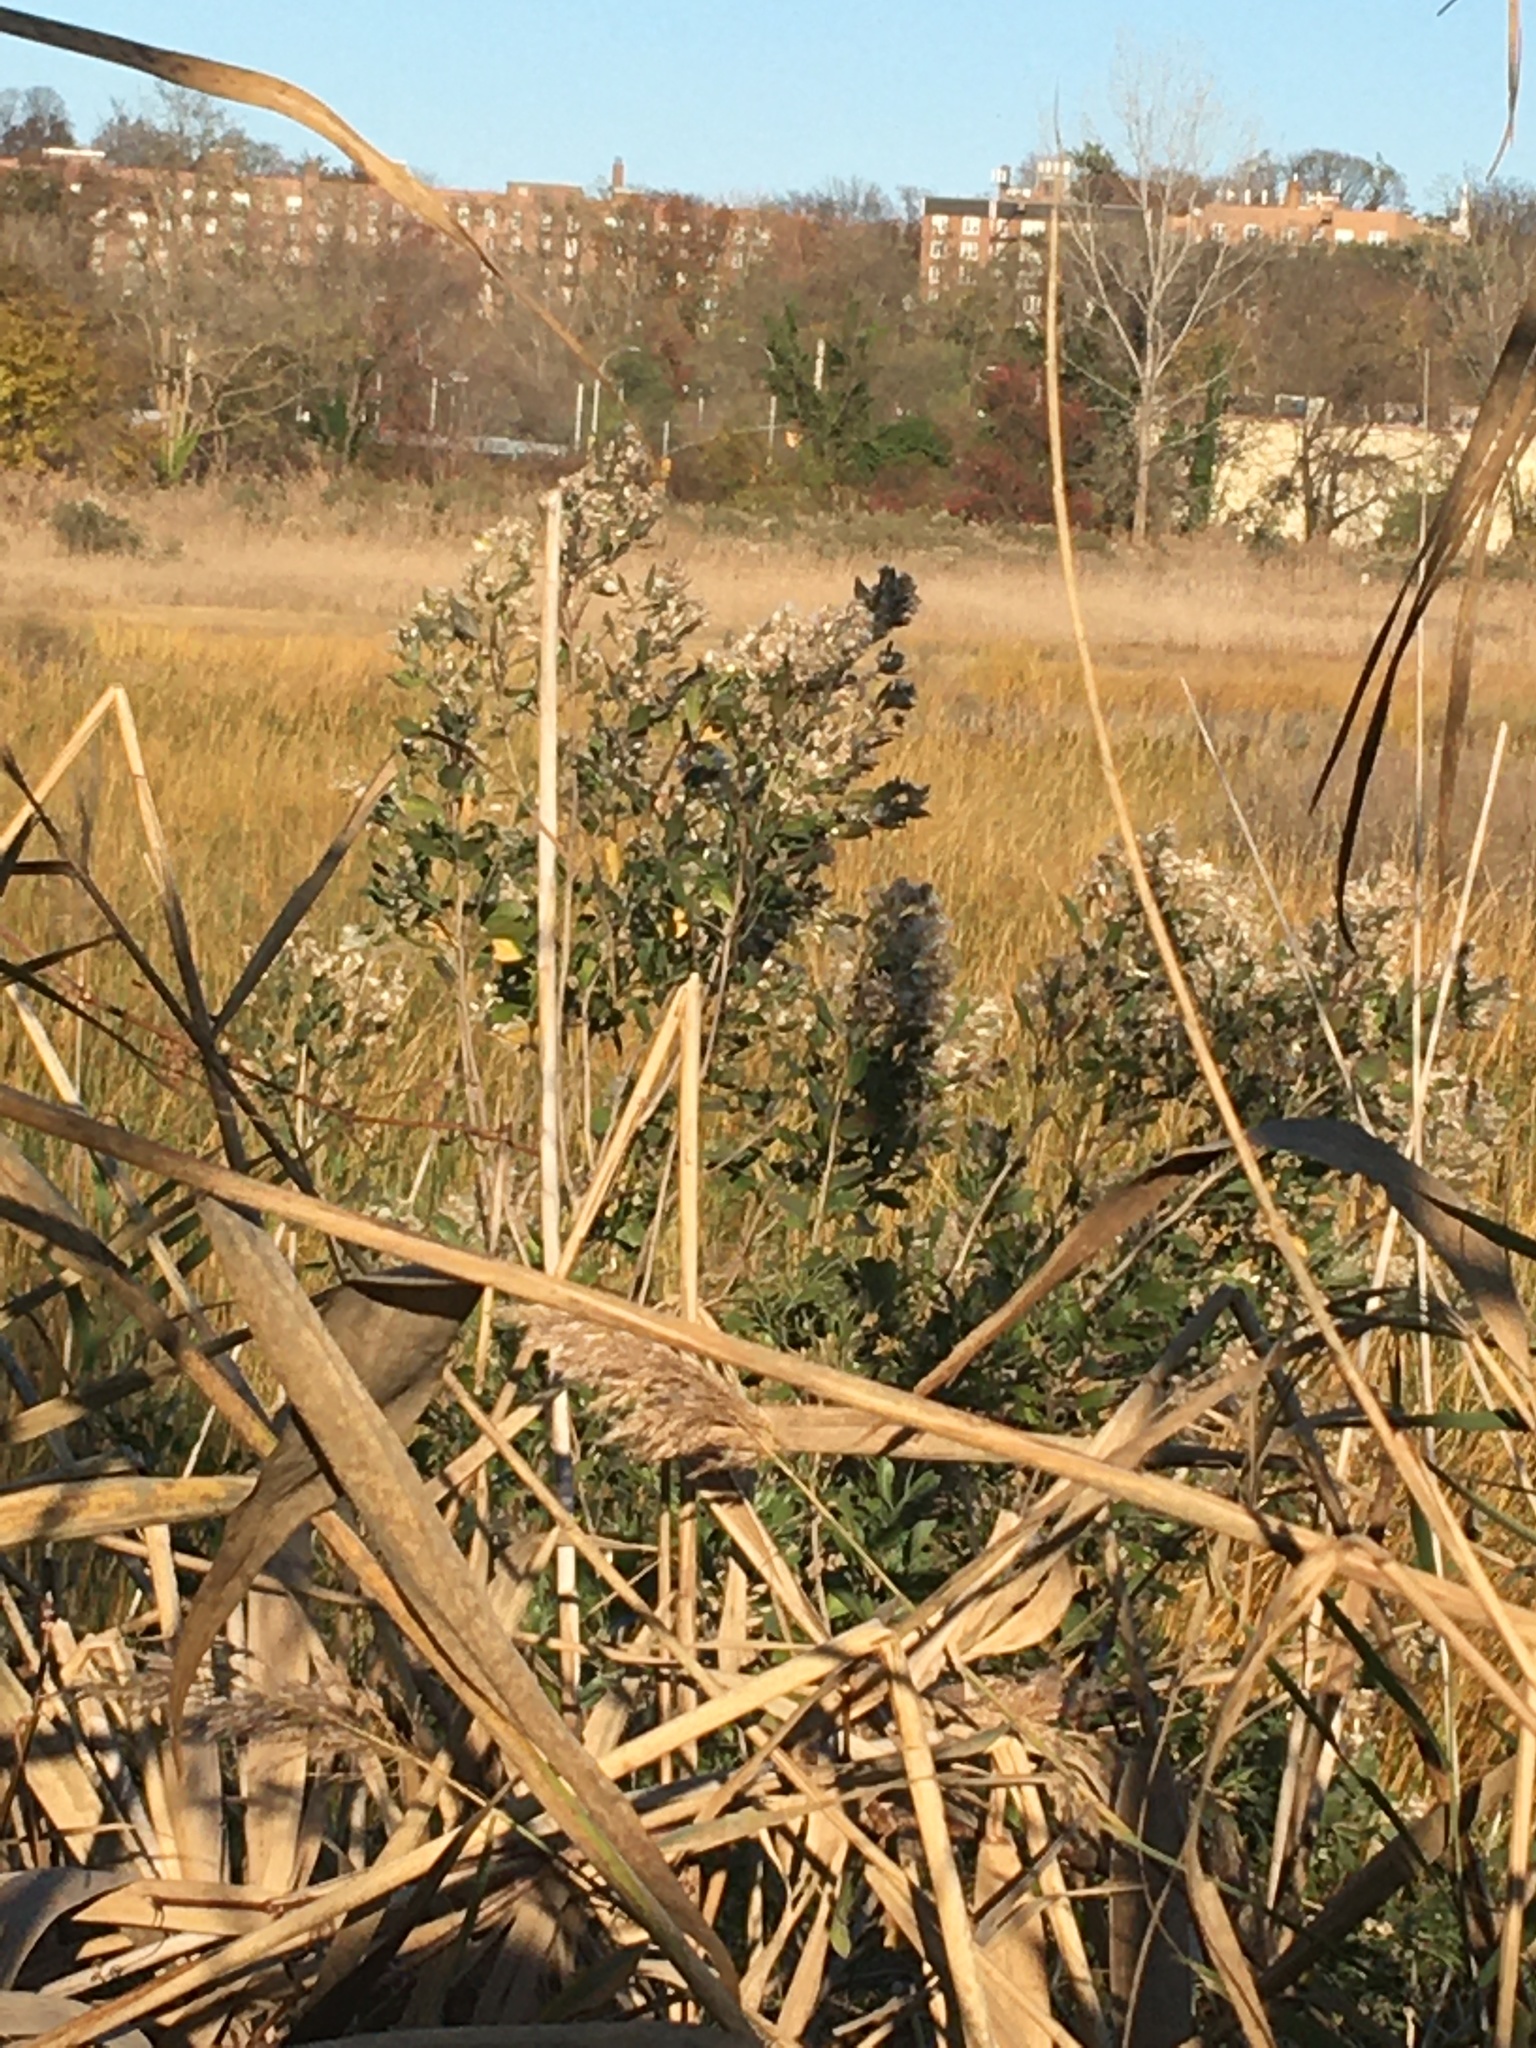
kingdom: Plantae
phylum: Tracheophyta
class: Magnoliopsida
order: Asterales
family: Asteraceae
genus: Baccharis
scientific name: Baccharis halimifolia
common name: Eastern baccharis
